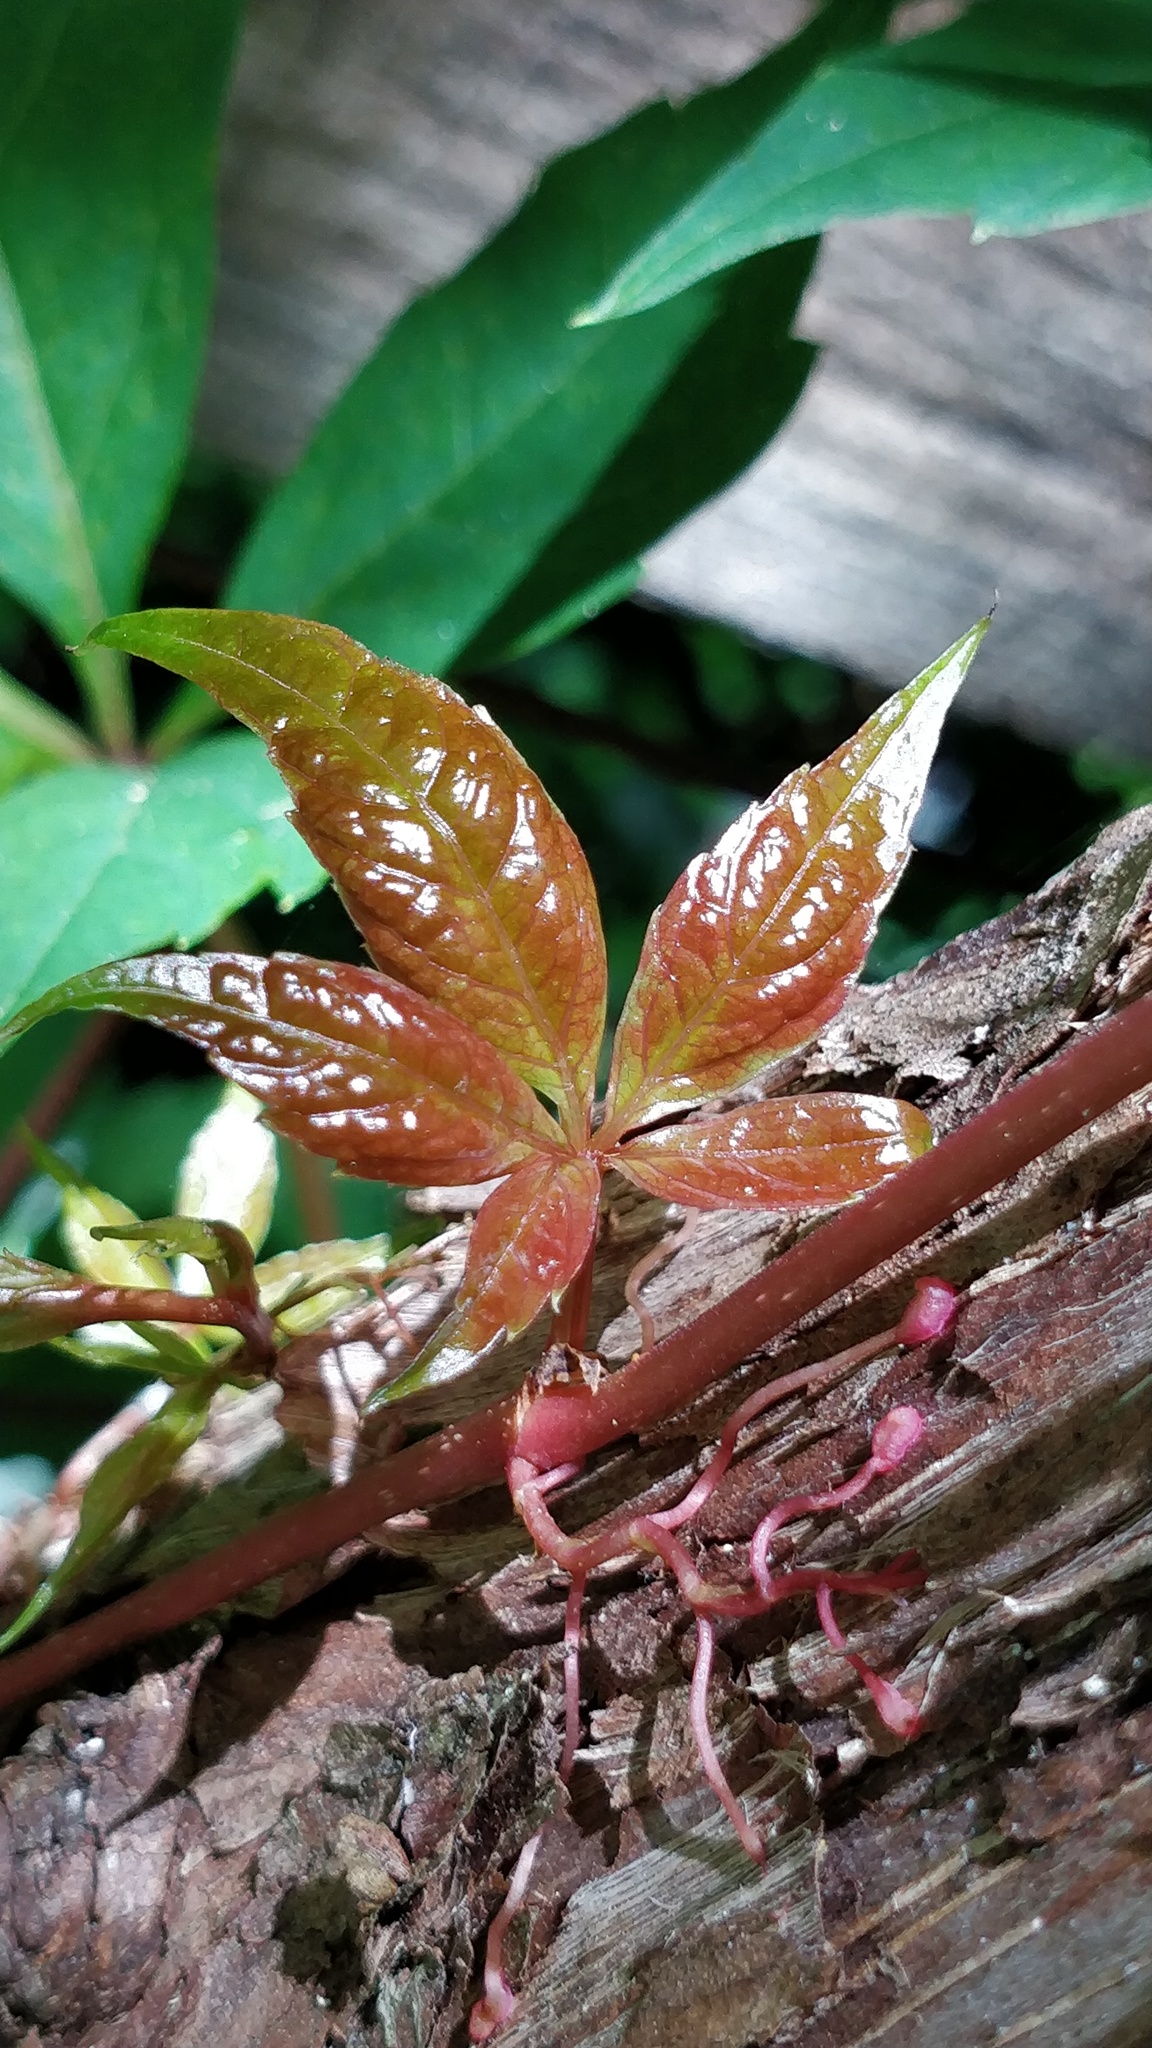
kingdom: Plantae
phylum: Tracheophyta
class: Magnoliopsida
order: Vitales
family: Vitaceae
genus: Parthenocissus
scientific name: Parthenocissus quinquefolia
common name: Virginia-creeper
